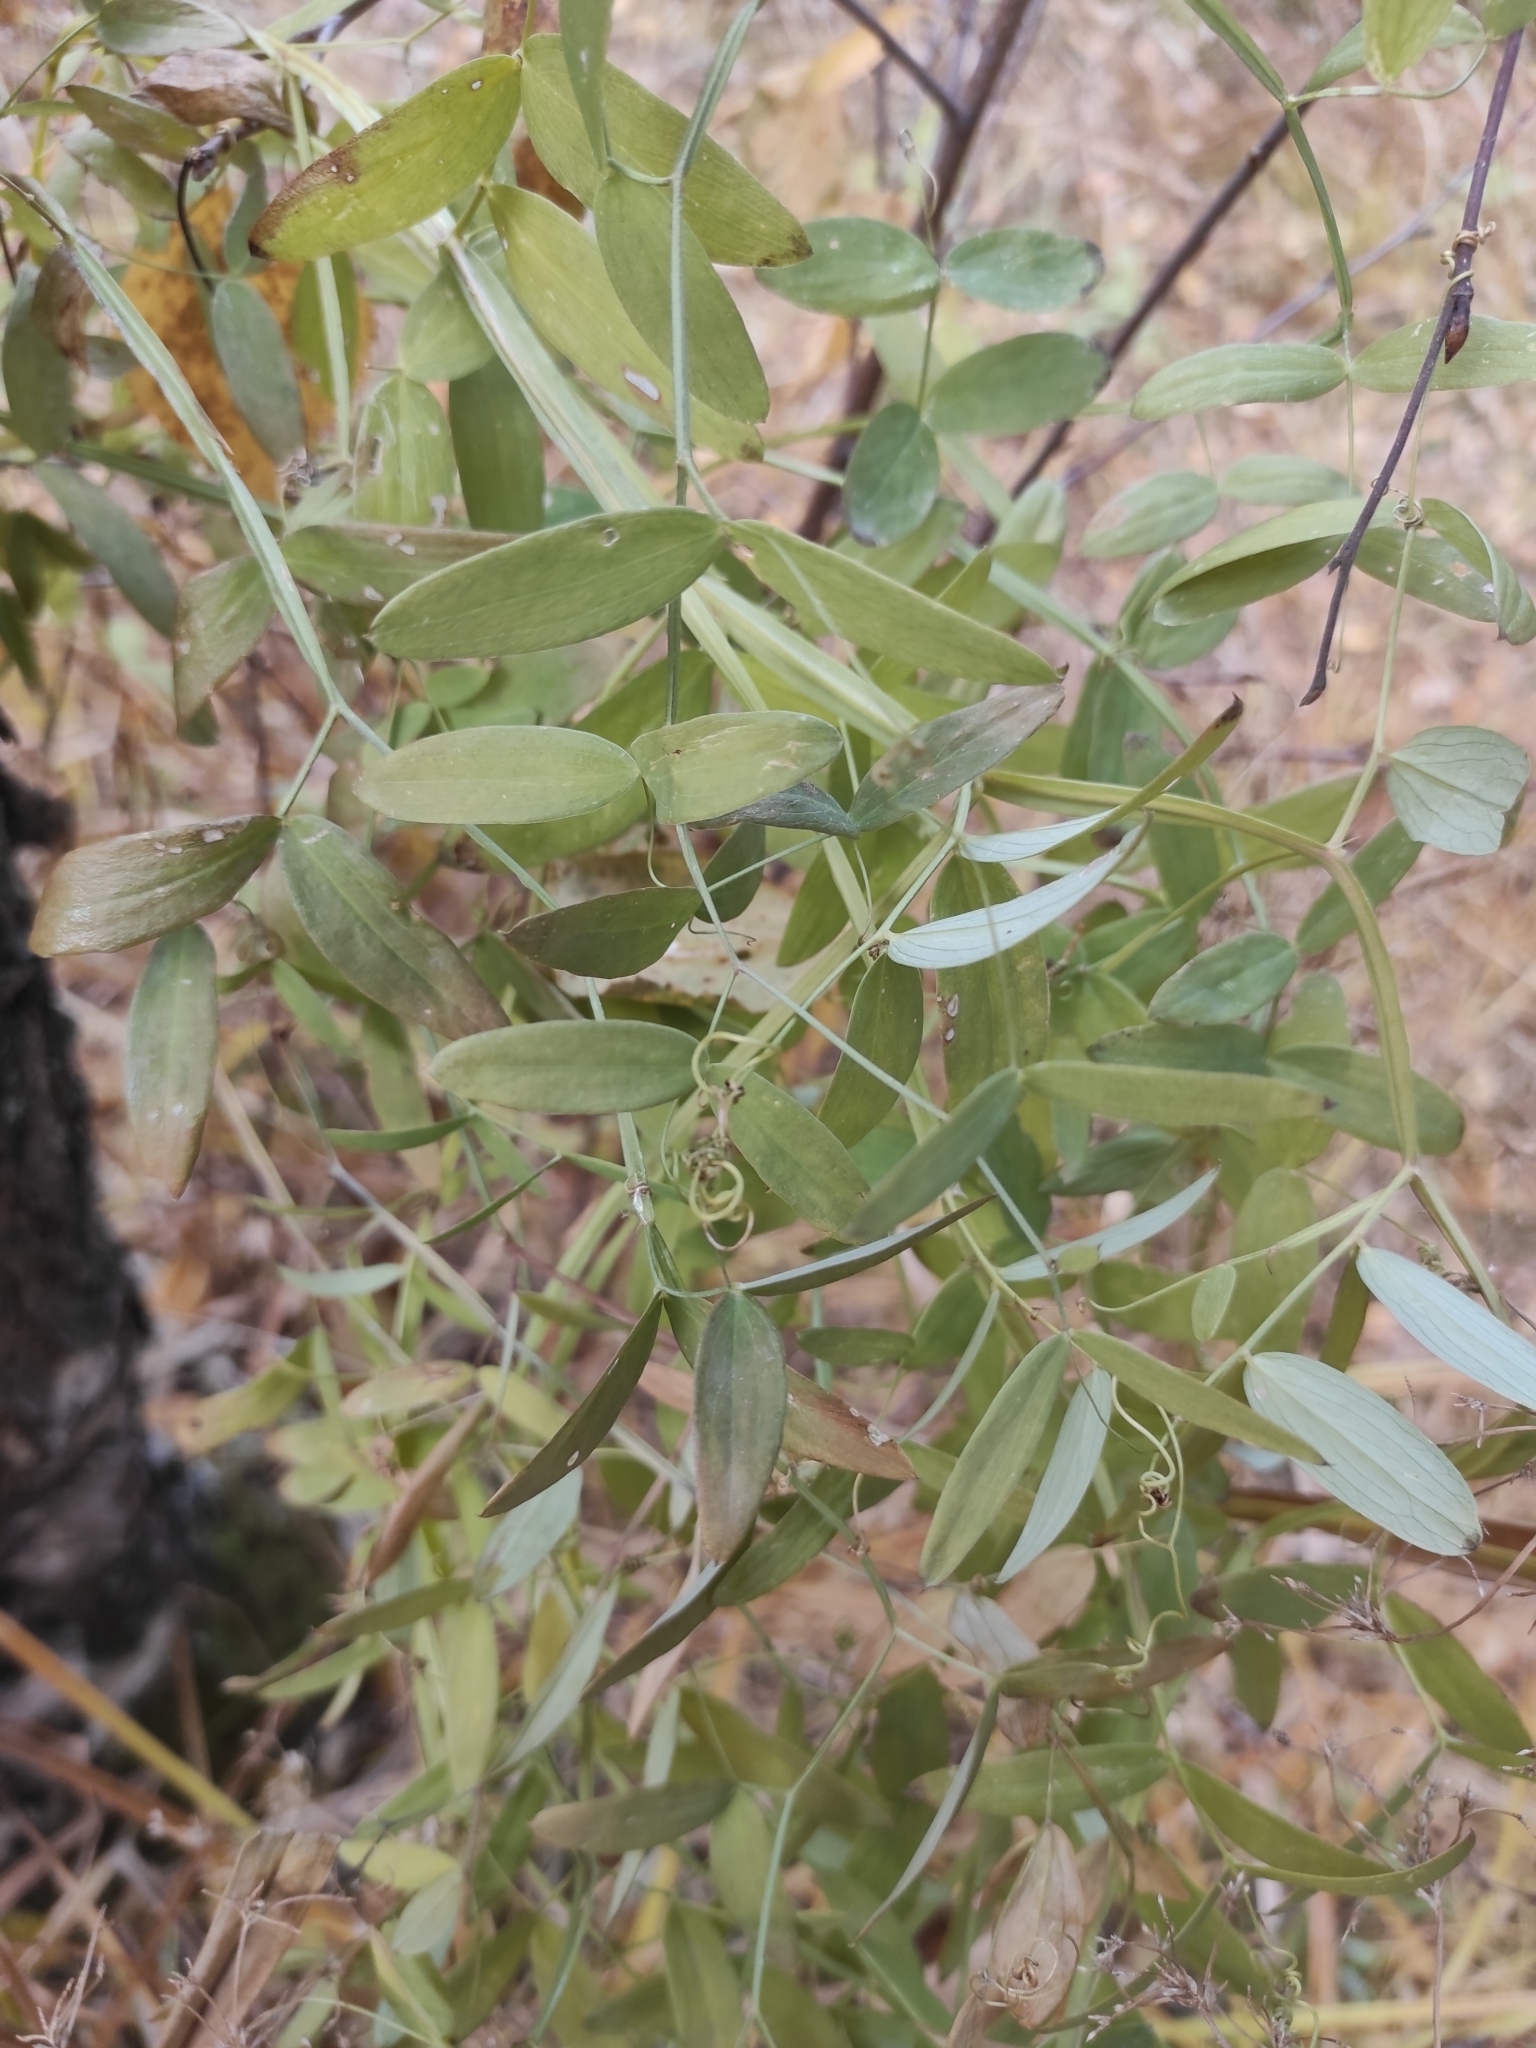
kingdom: Plantae
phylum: Tracheophyta
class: Magnoliopsida
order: Fabales
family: Fabaceae
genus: Lathyrus
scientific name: Lathyrus palustris
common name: Marsh pea
